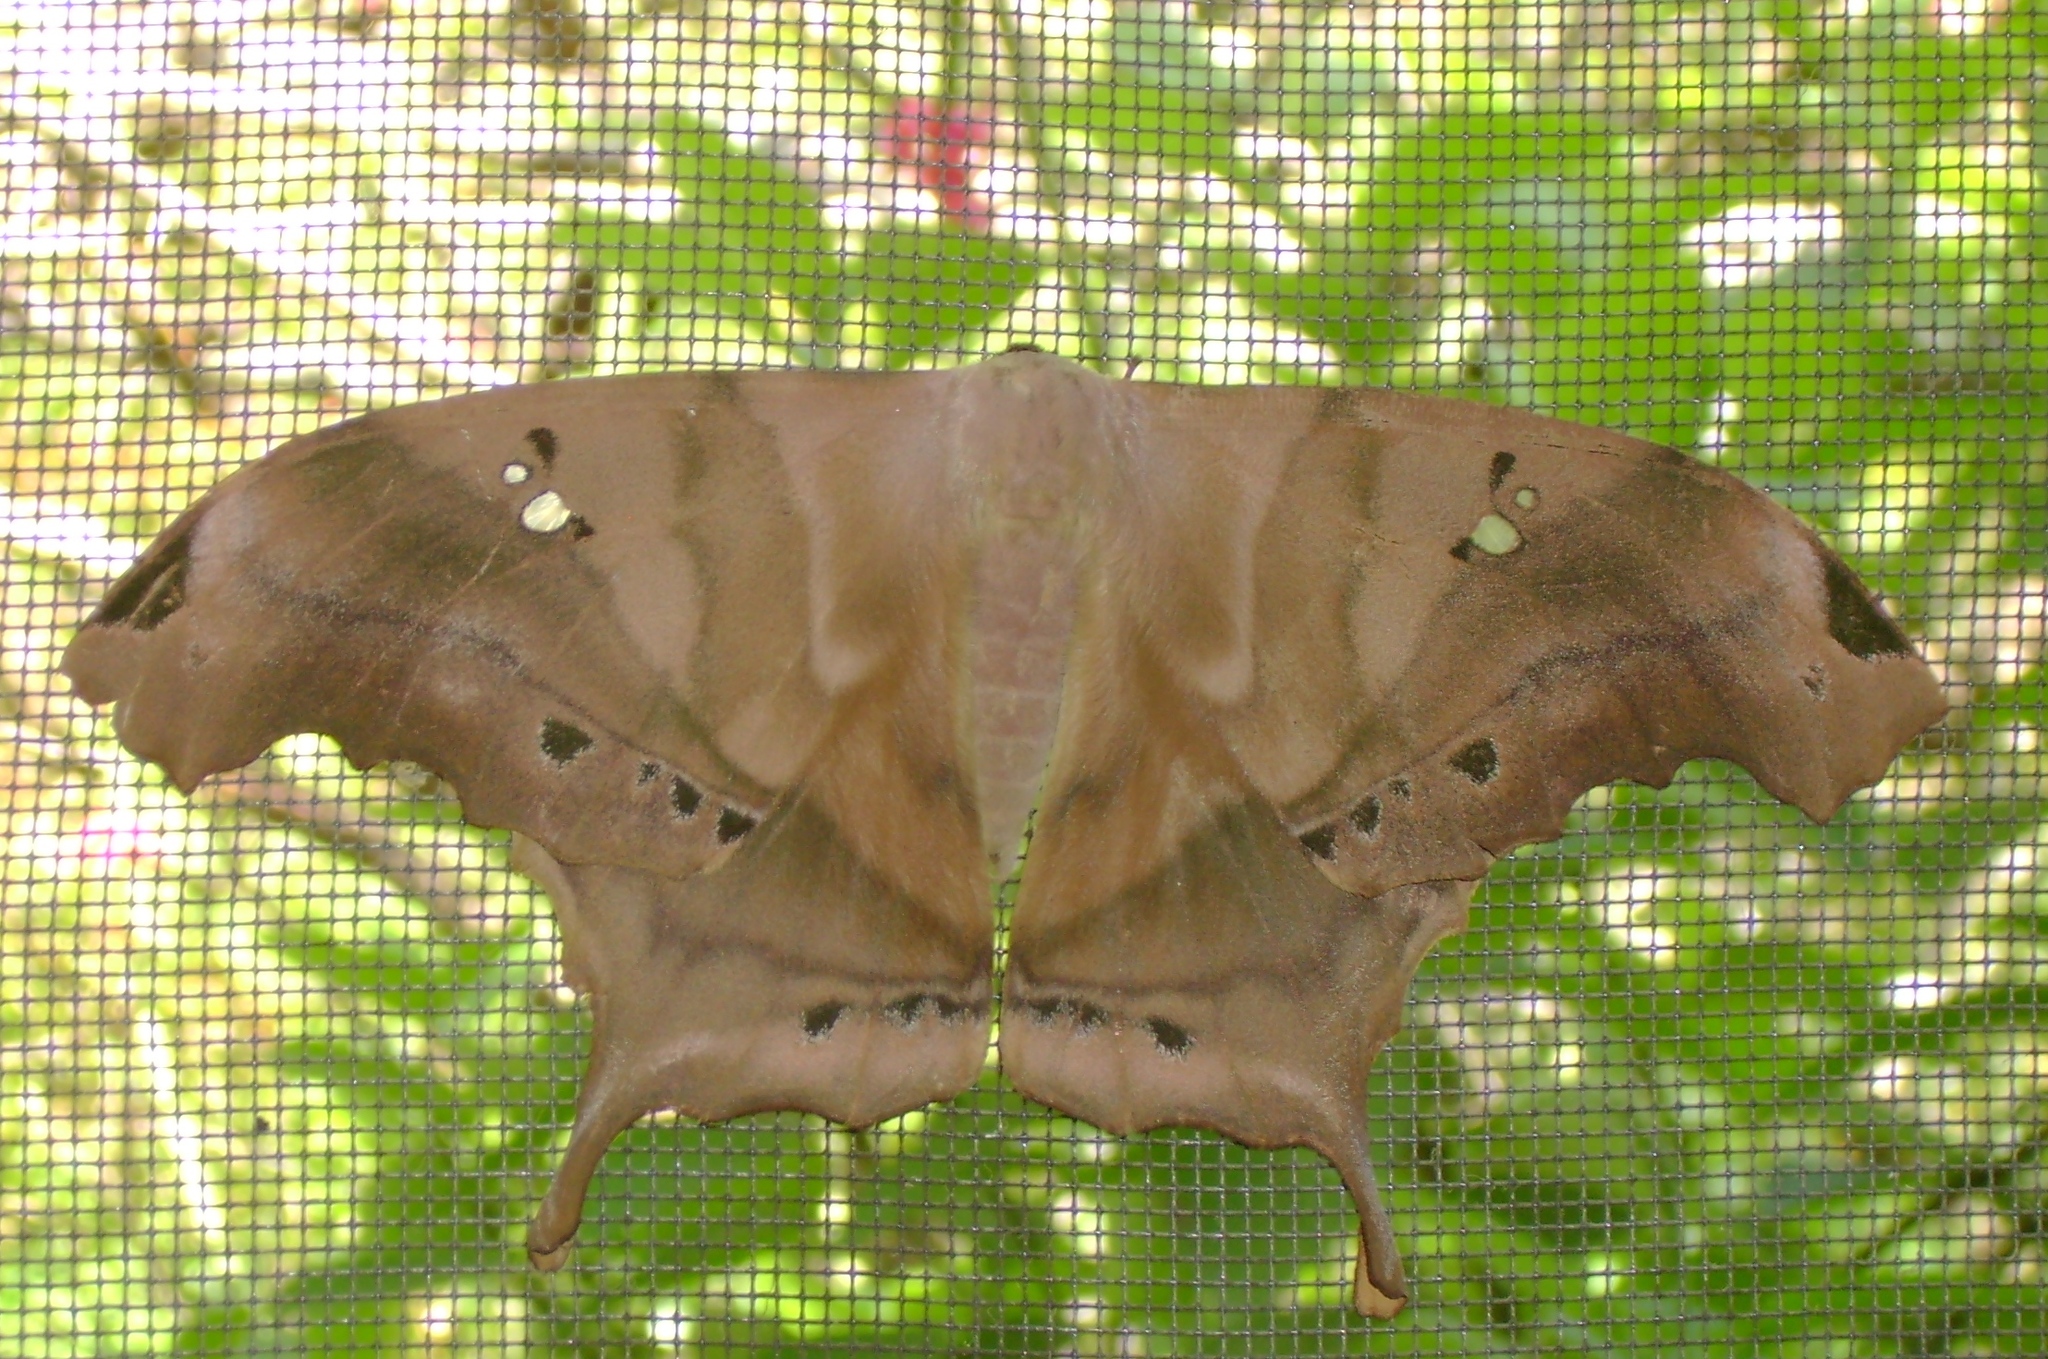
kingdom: Animalia
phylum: Arthropoda
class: Insecta
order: Lepidoptera
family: Saturniidae
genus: Titaea
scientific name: Titaea tamerlan
